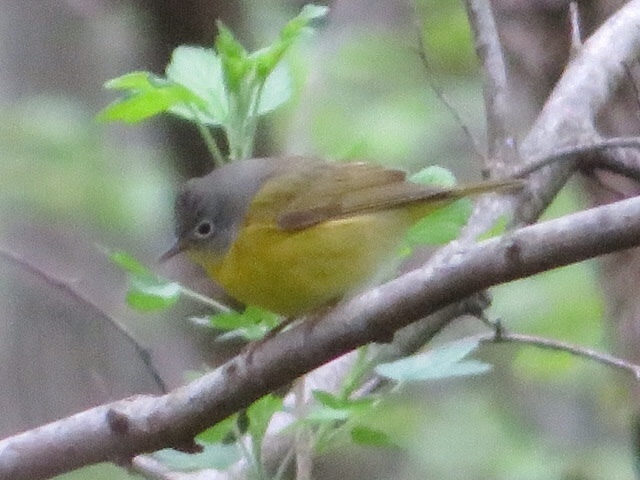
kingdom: Animalia
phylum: Chordata
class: Aves
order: Passeriformes
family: Parulidae
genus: Leiothlypis
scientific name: Leiothlypis ruficapilla
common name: Nashville warbler
